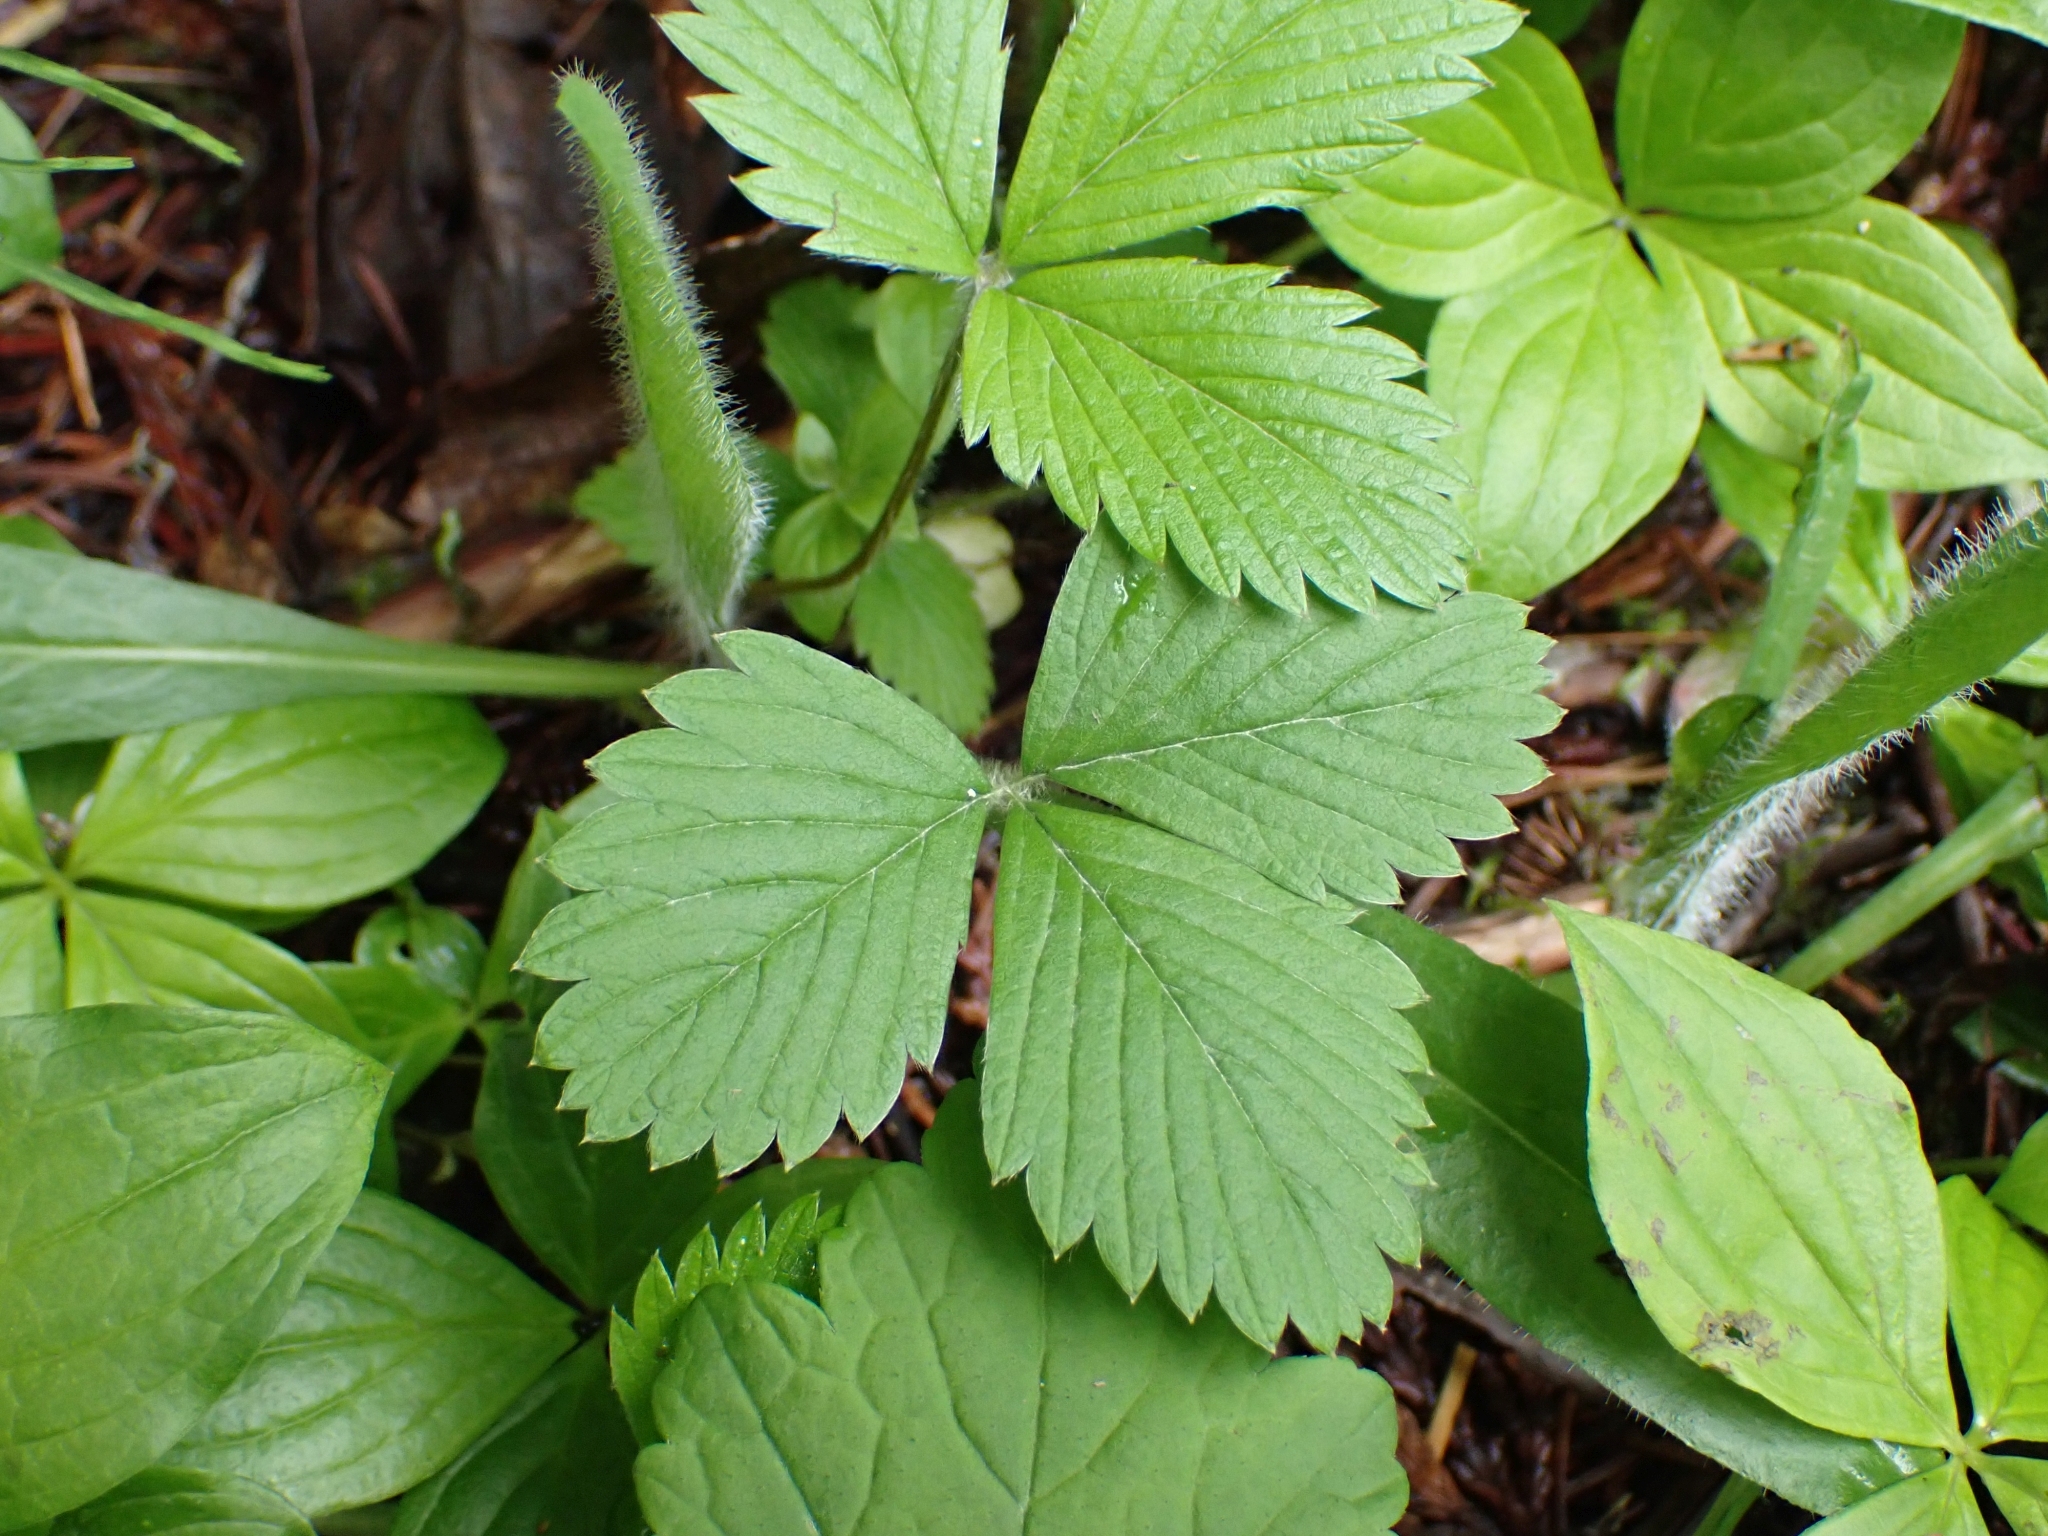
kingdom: Plantae
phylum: Tracheophyta
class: Magnoliopsida
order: Rosales
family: Rosaceae
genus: Fragaria
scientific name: Fragaria vesca
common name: Wild strawberry
